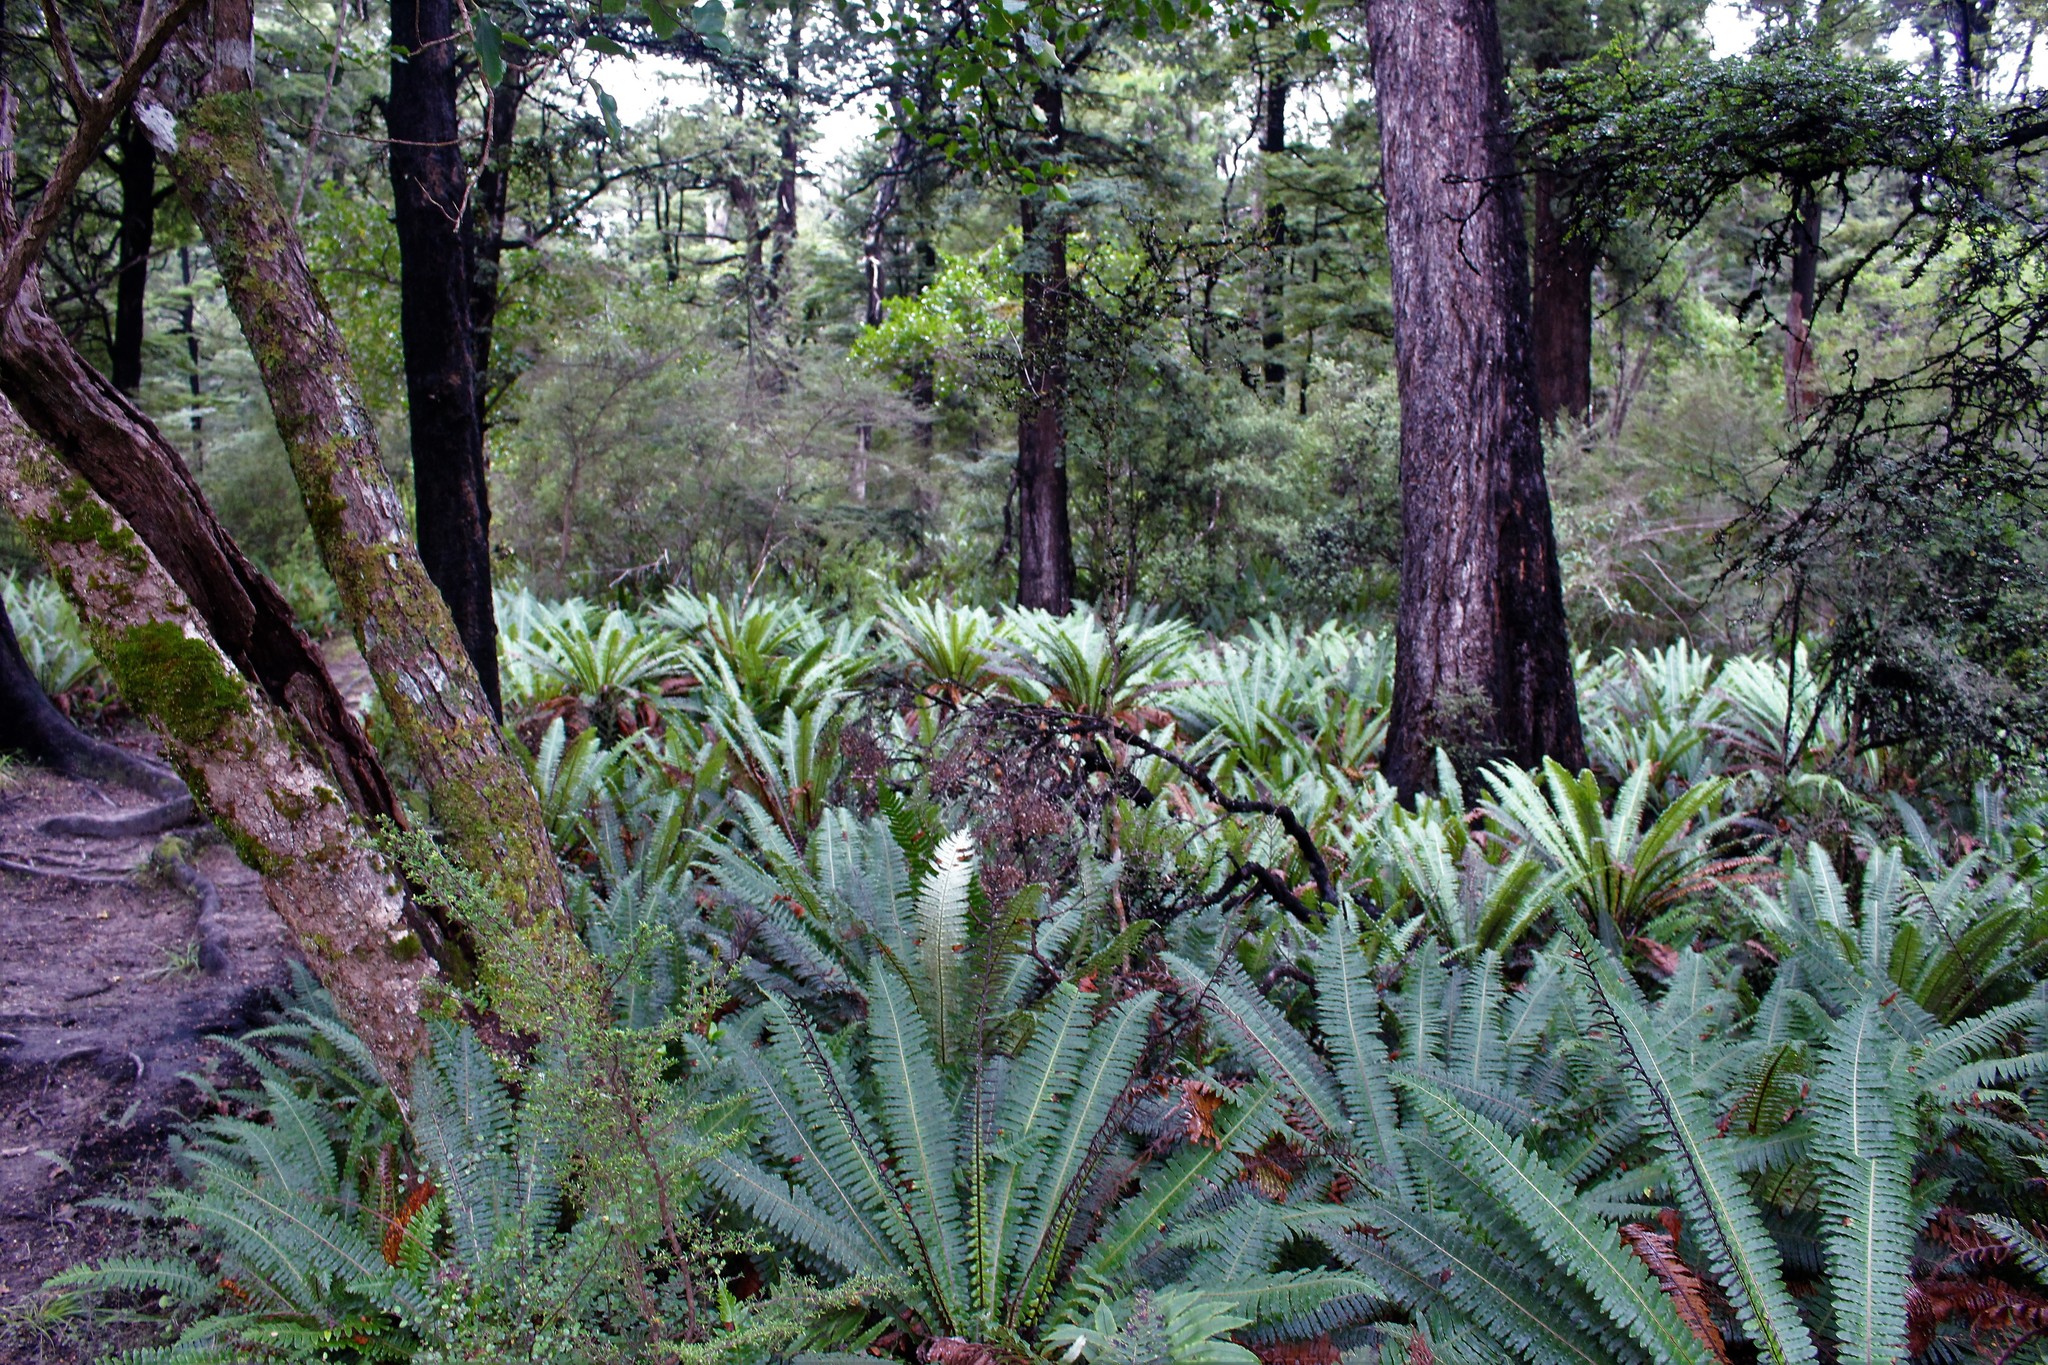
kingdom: Plantae
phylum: Tracheophyta
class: Polypodiopsida
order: Polypodiales
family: Blechnaceae
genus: Lomaria
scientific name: Lomaria discolor
